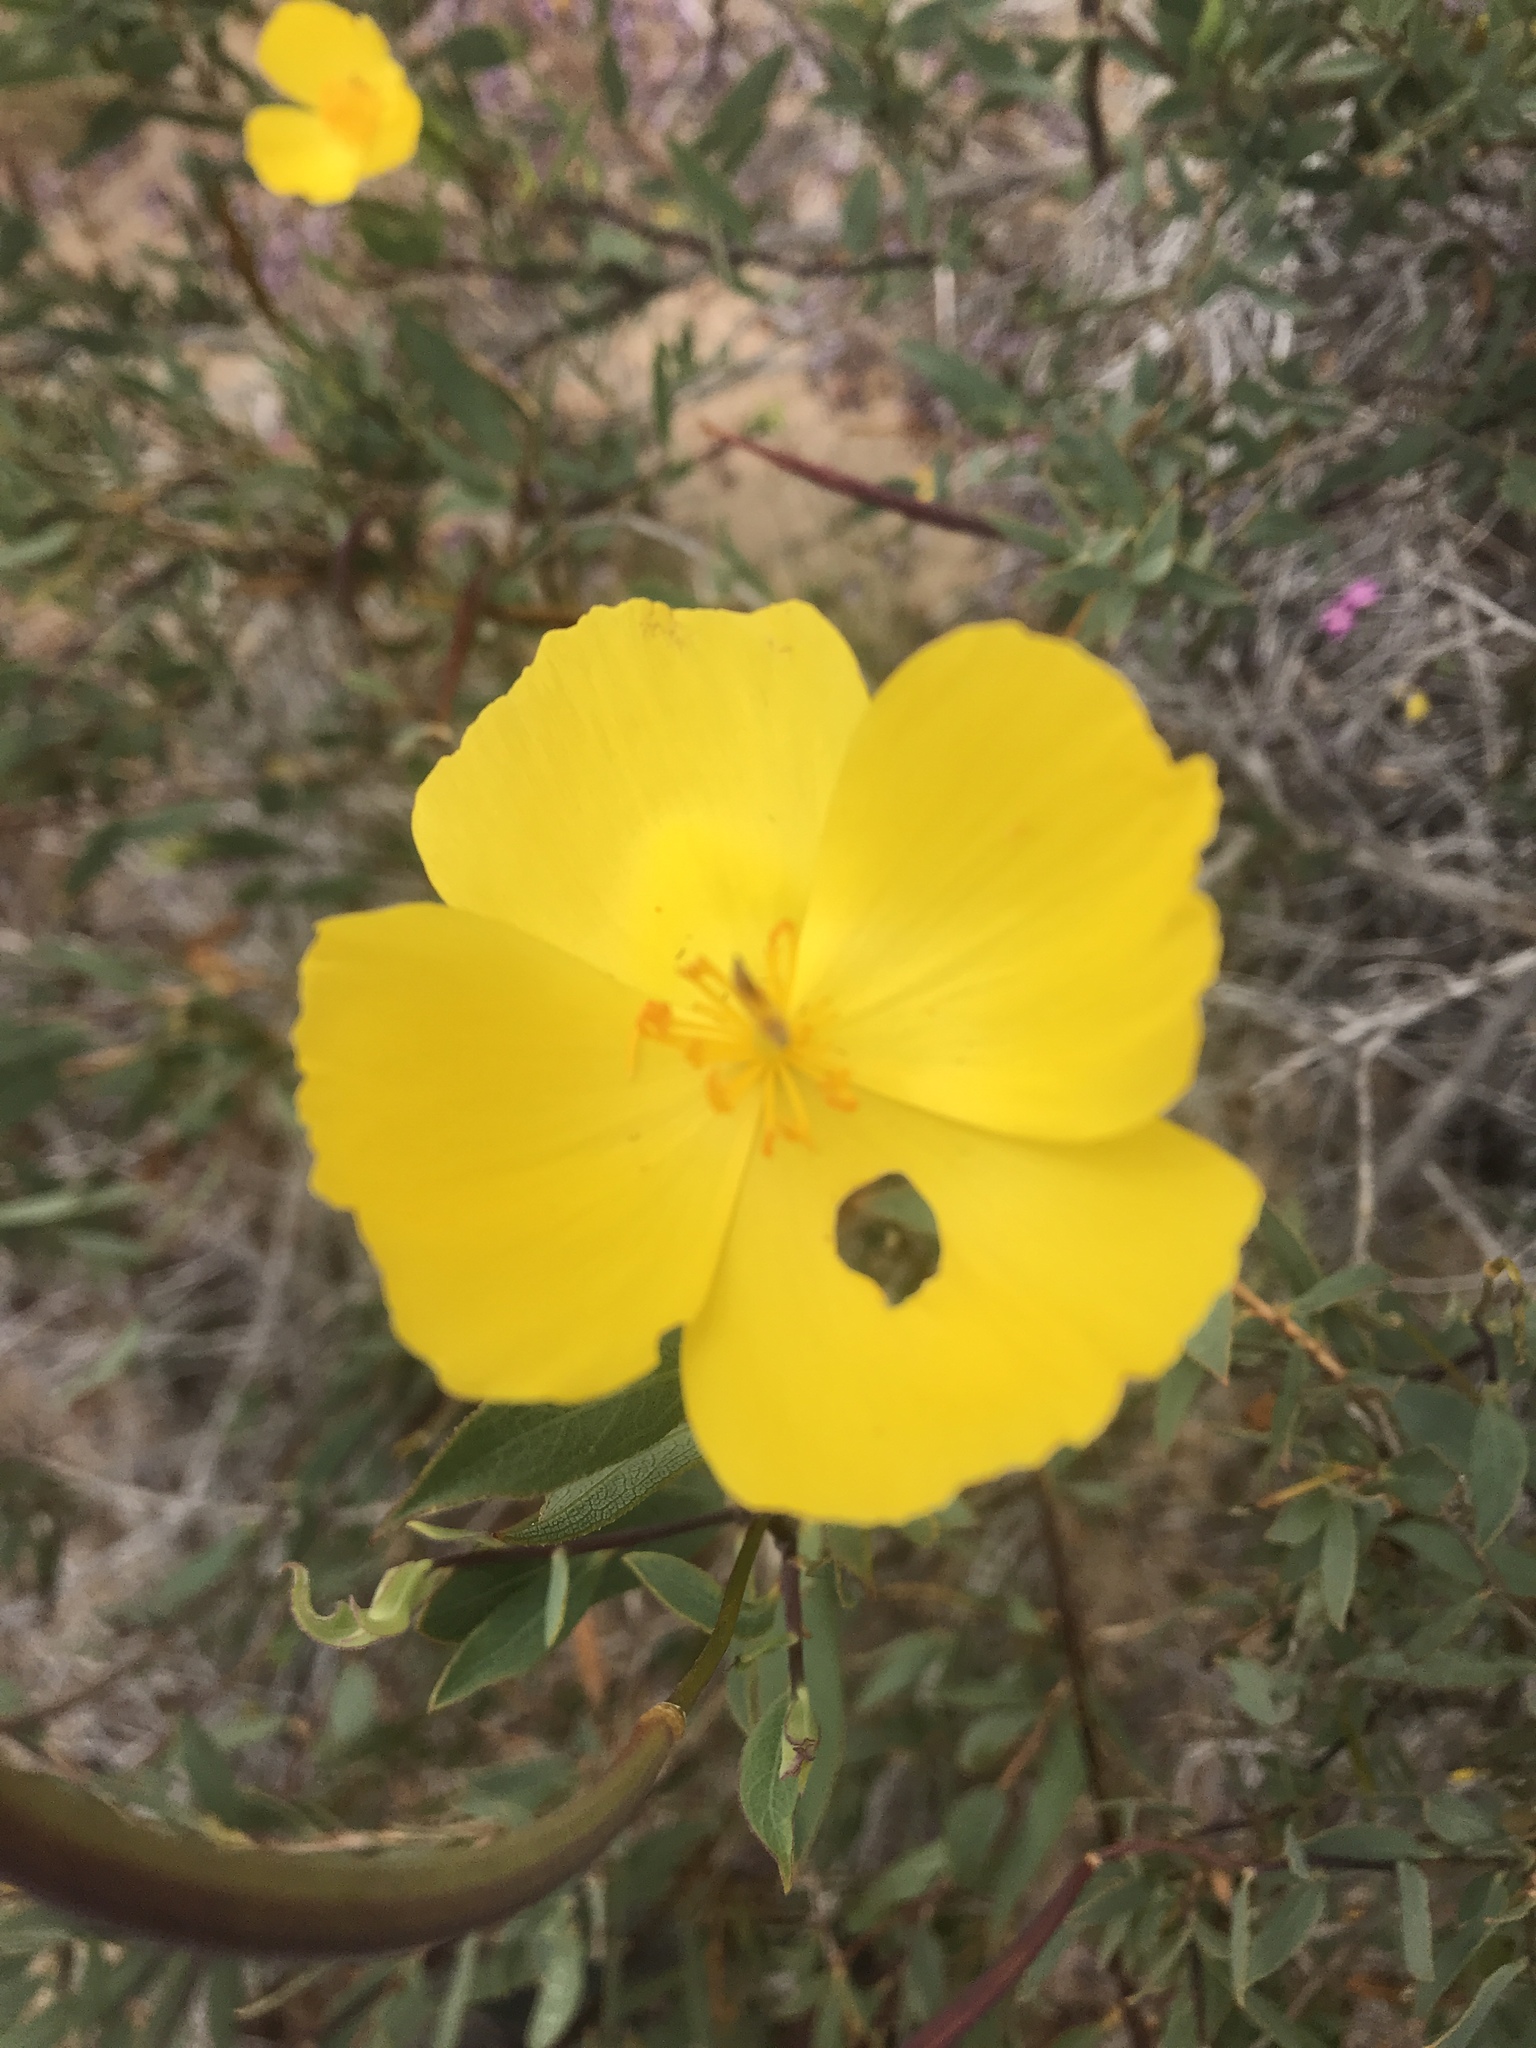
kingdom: Plantae
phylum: Tracheophyta
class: Magnoliopsida
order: Ranunculales
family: Papaveraceae
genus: Dendromecon
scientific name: Dendromecon rigida
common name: Tree poppy
